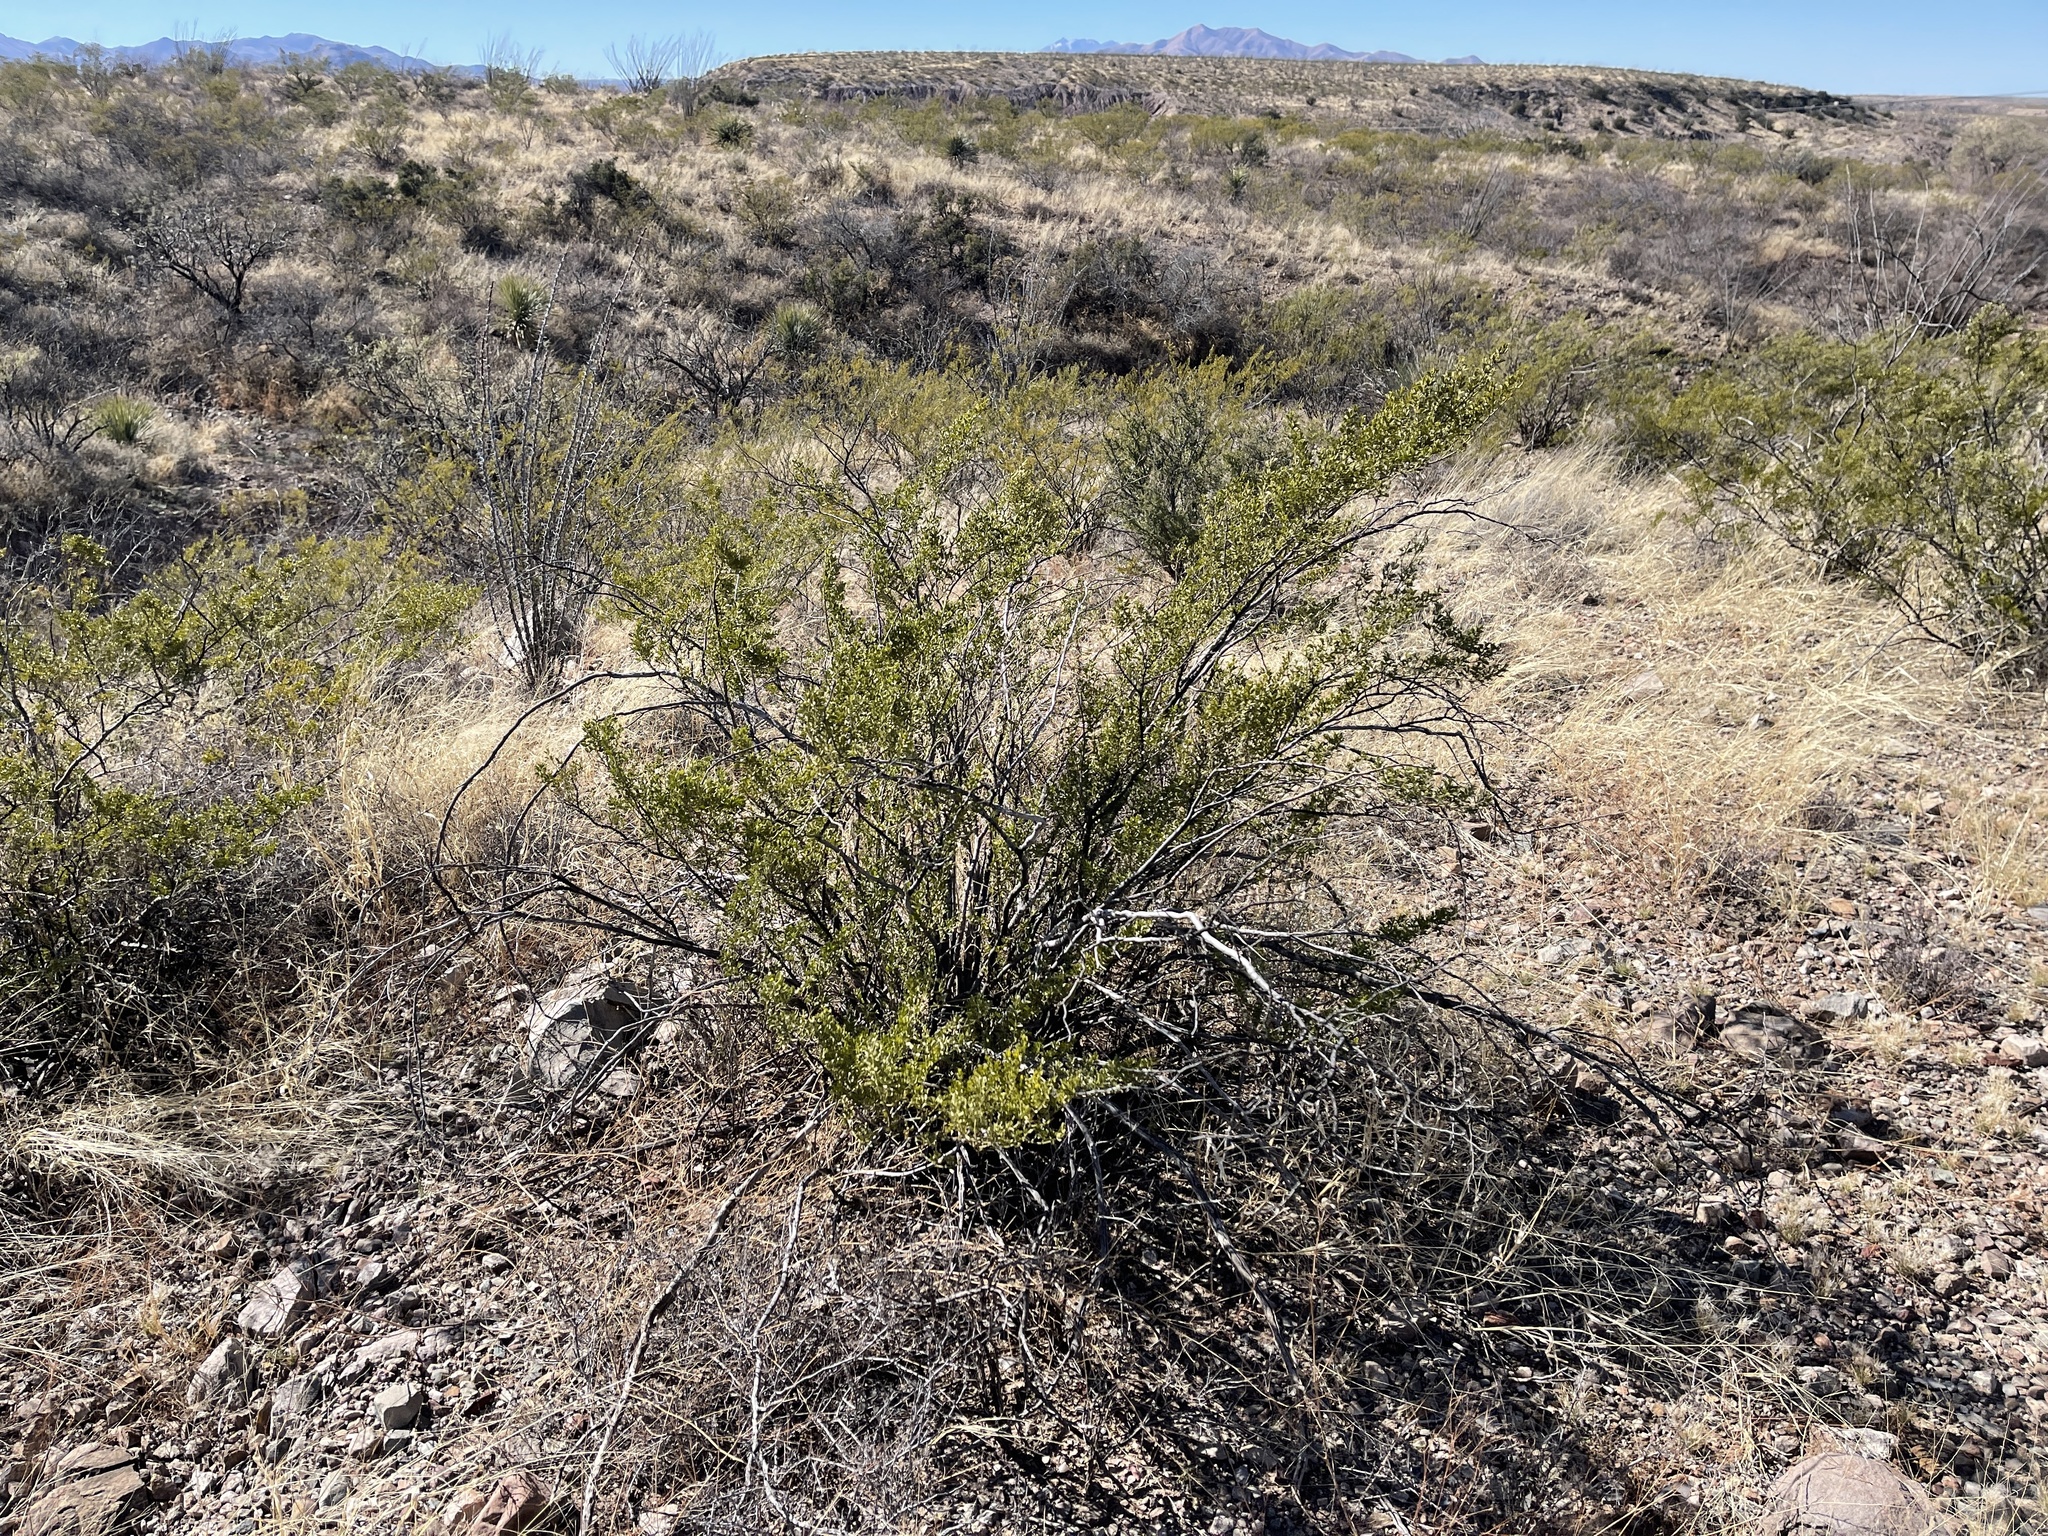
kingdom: Plantae
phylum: Tracheophyta
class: Magnoliopsida
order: Zygophyllales
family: Zygophyllaceae
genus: Larrea
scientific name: Larrea tridentata
